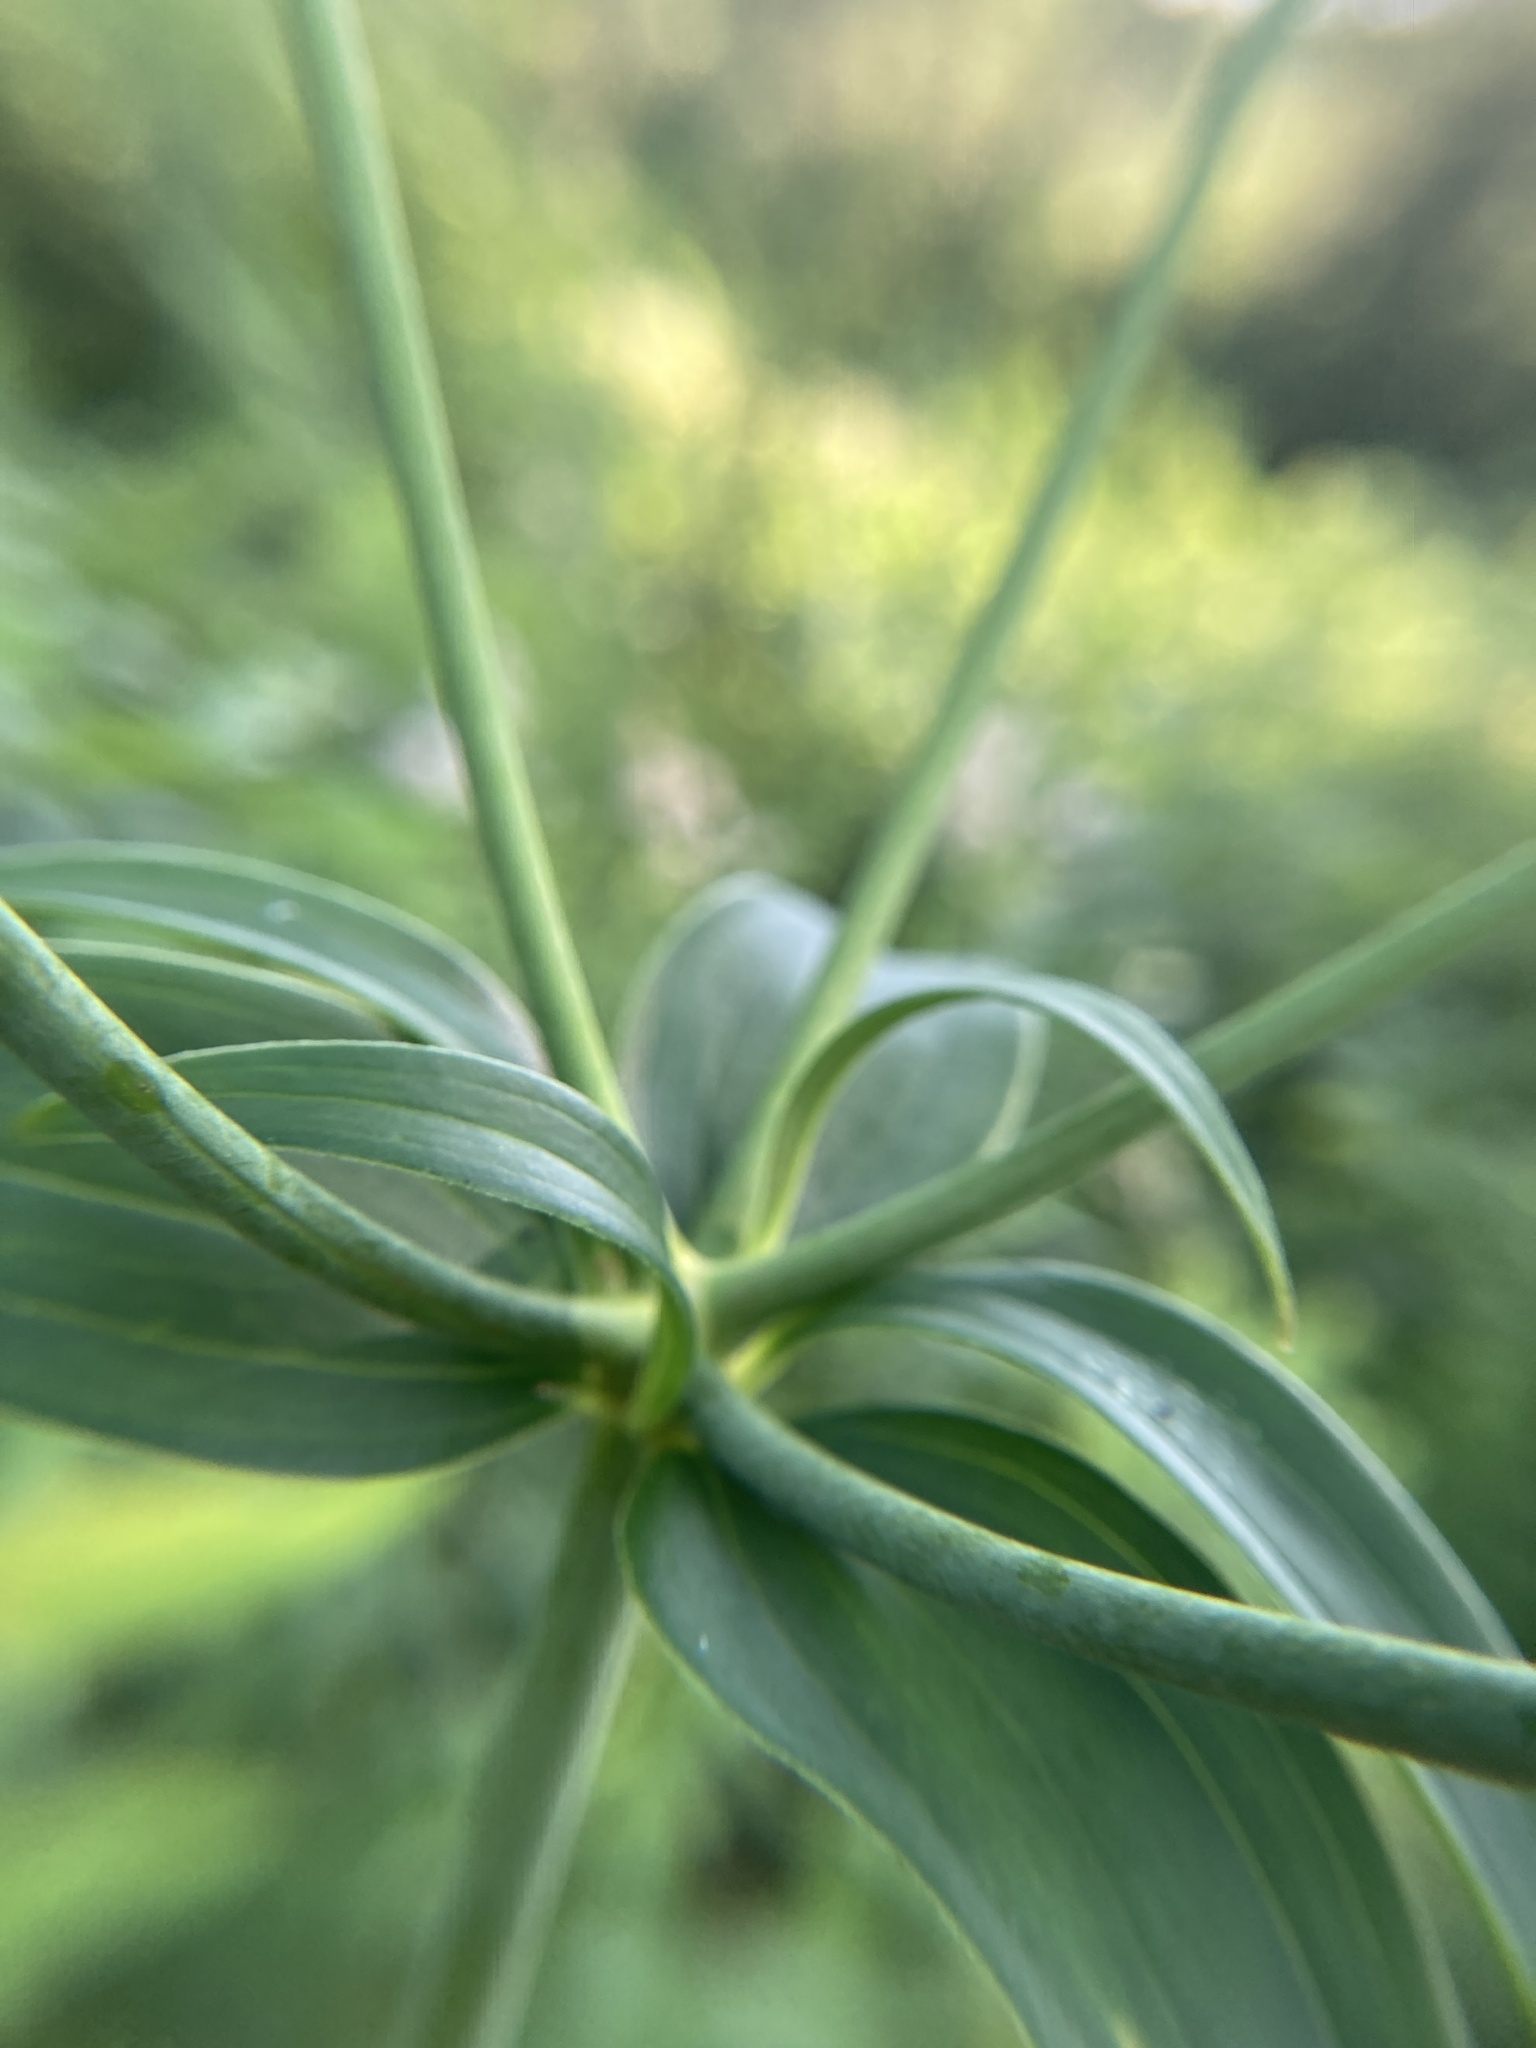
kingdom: Plantae
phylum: Tracheophyta
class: Liliopsida
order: Liliales
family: Liliaceae
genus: Lilium
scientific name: Lilium canadense
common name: Canada lily
